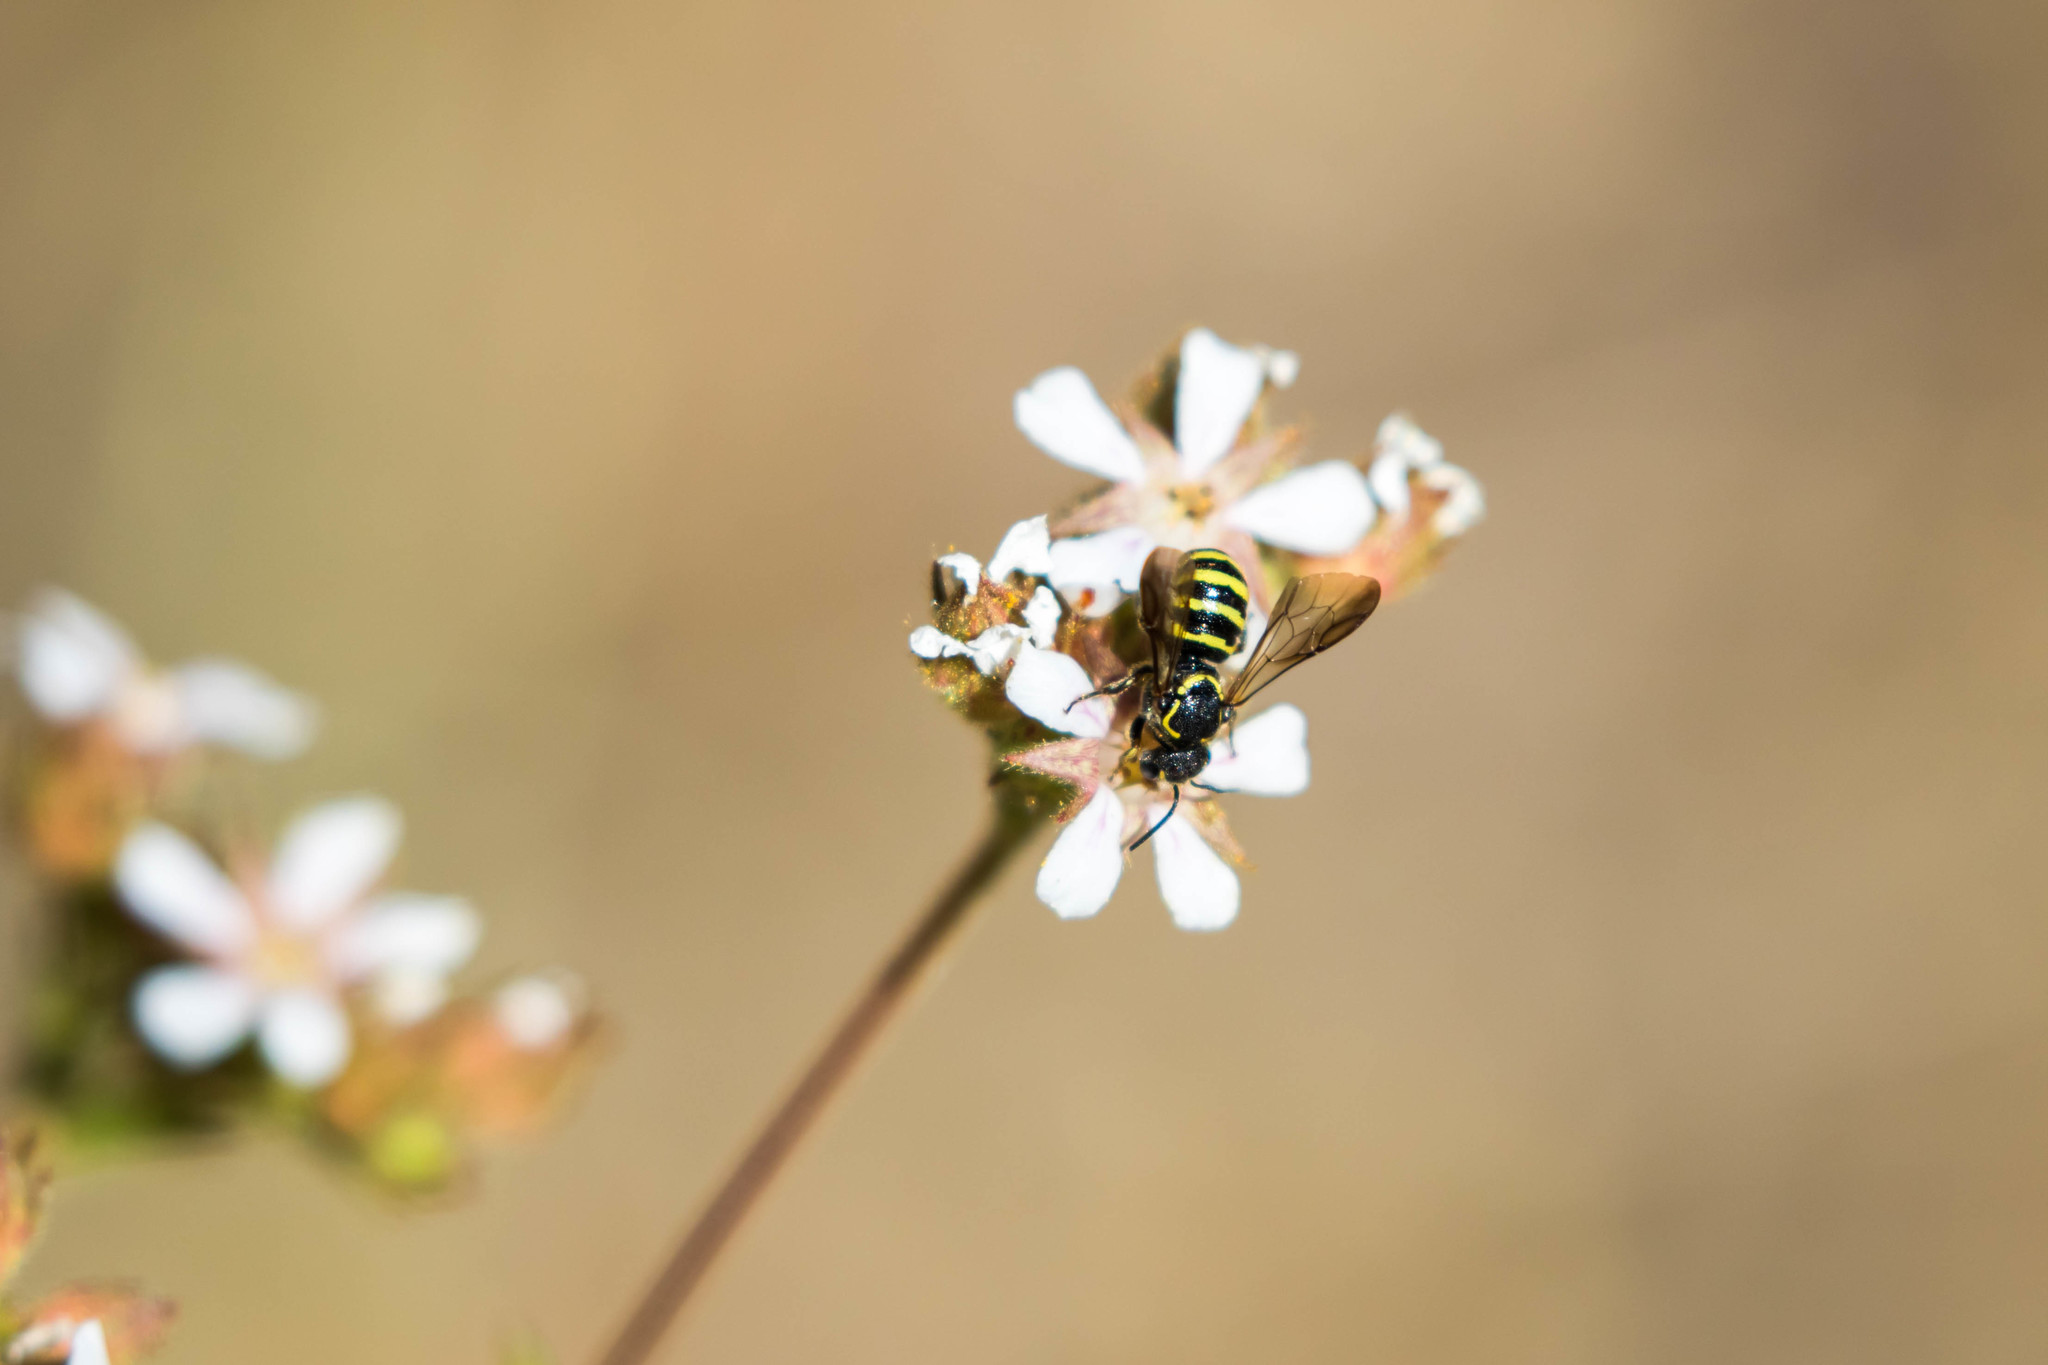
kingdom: Animalia
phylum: Arthropoda
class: Insecta
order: Hymenoptera
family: Megachilidae
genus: Stelis
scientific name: Stelis laticincta
